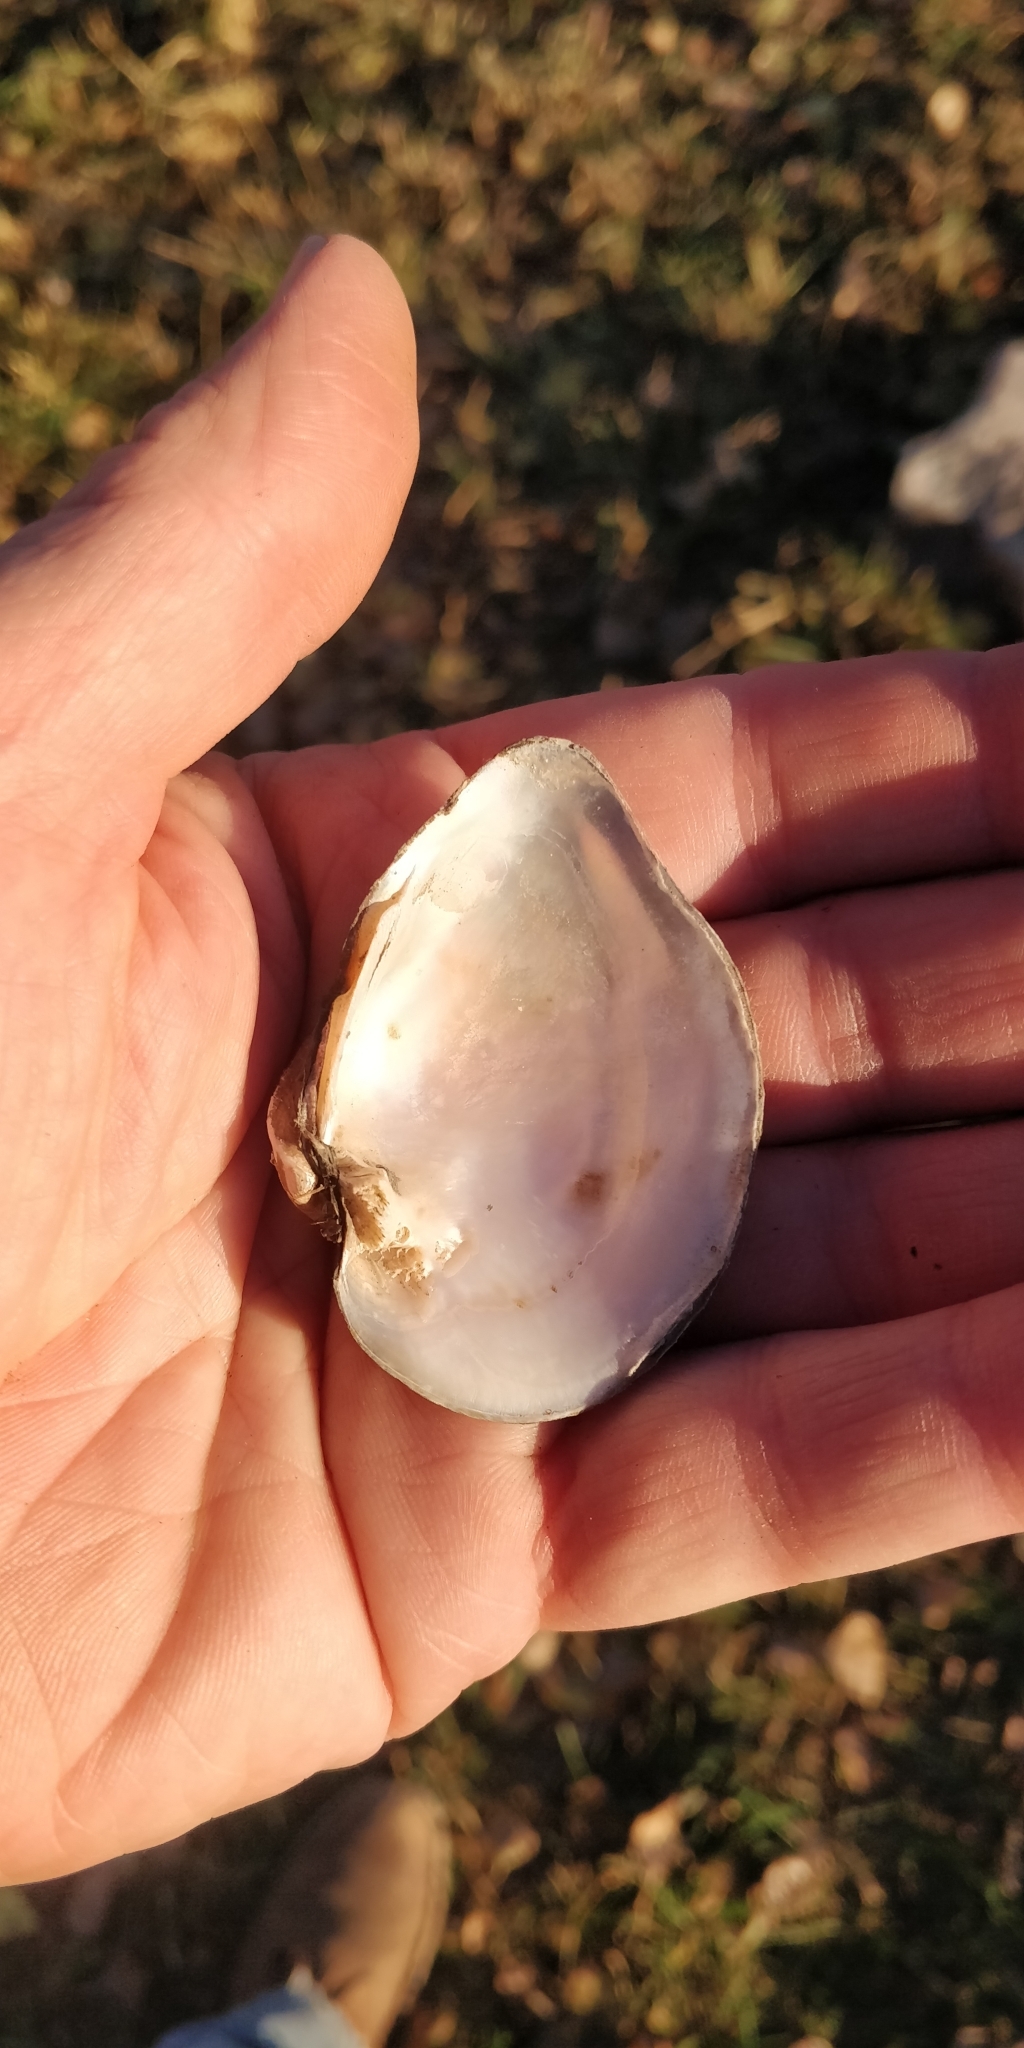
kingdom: Animalia
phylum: Mollusca
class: Bivalvia
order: Unionida
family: Unionidae
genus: Truncilla
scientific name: Truncilla truncata
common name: Deertoe
